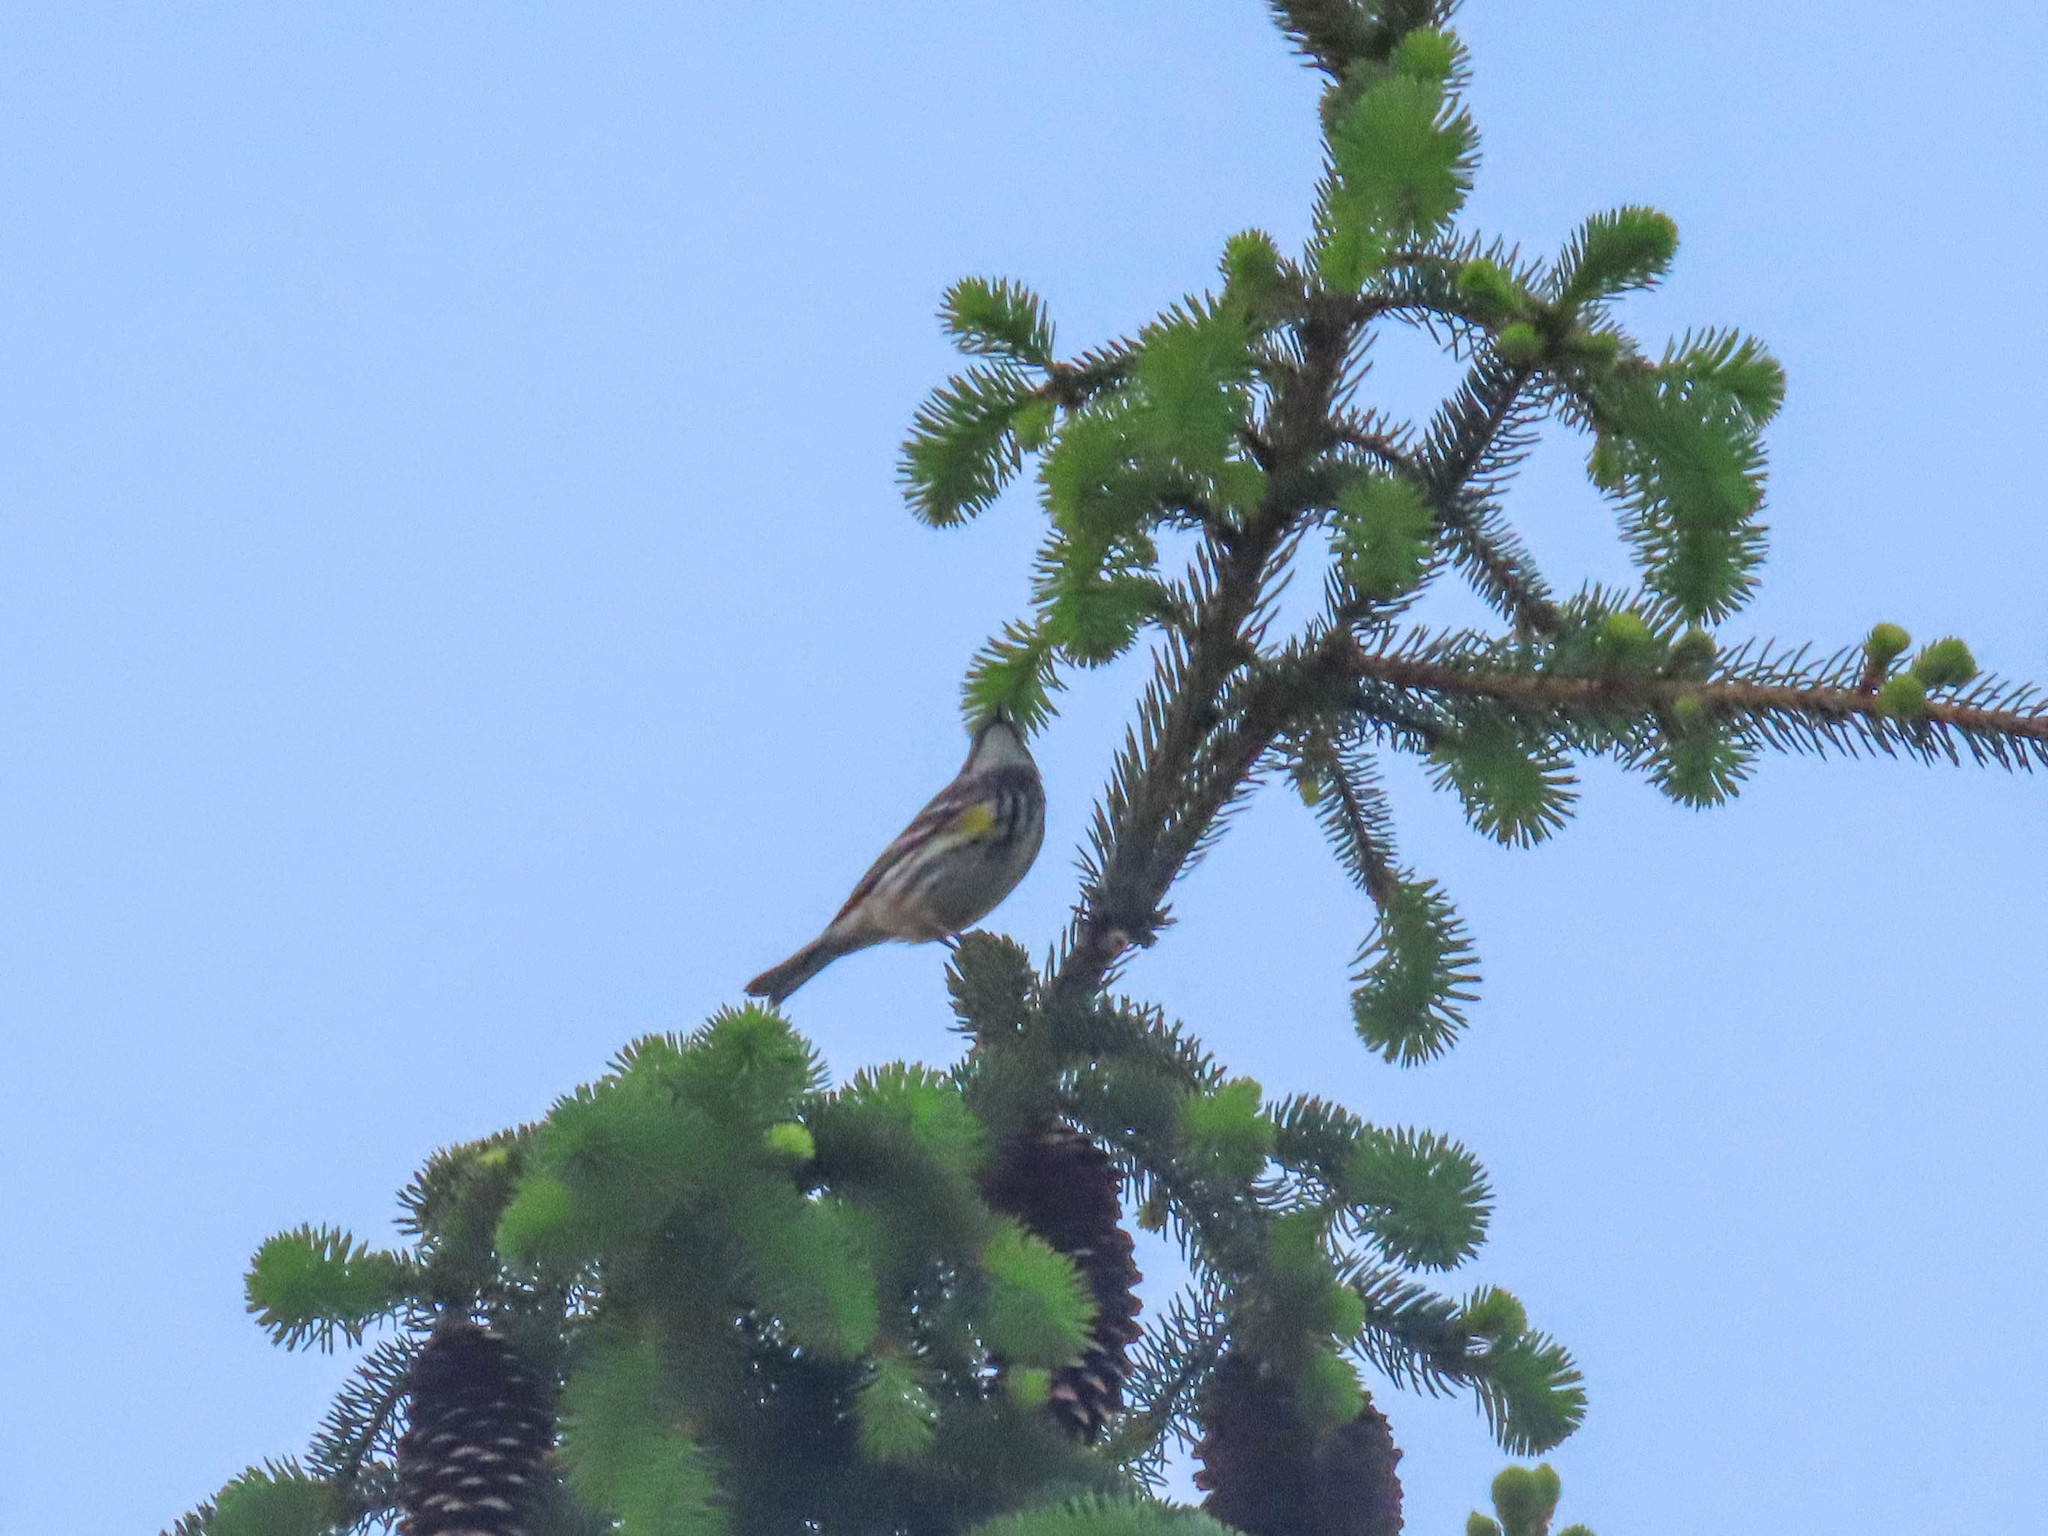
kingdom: Animalia
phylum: Chordata
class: Aves
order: Passeriformes
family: Parulidae
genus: Setophaga
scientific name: Setophaga coronata
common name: Myrtle warbler
